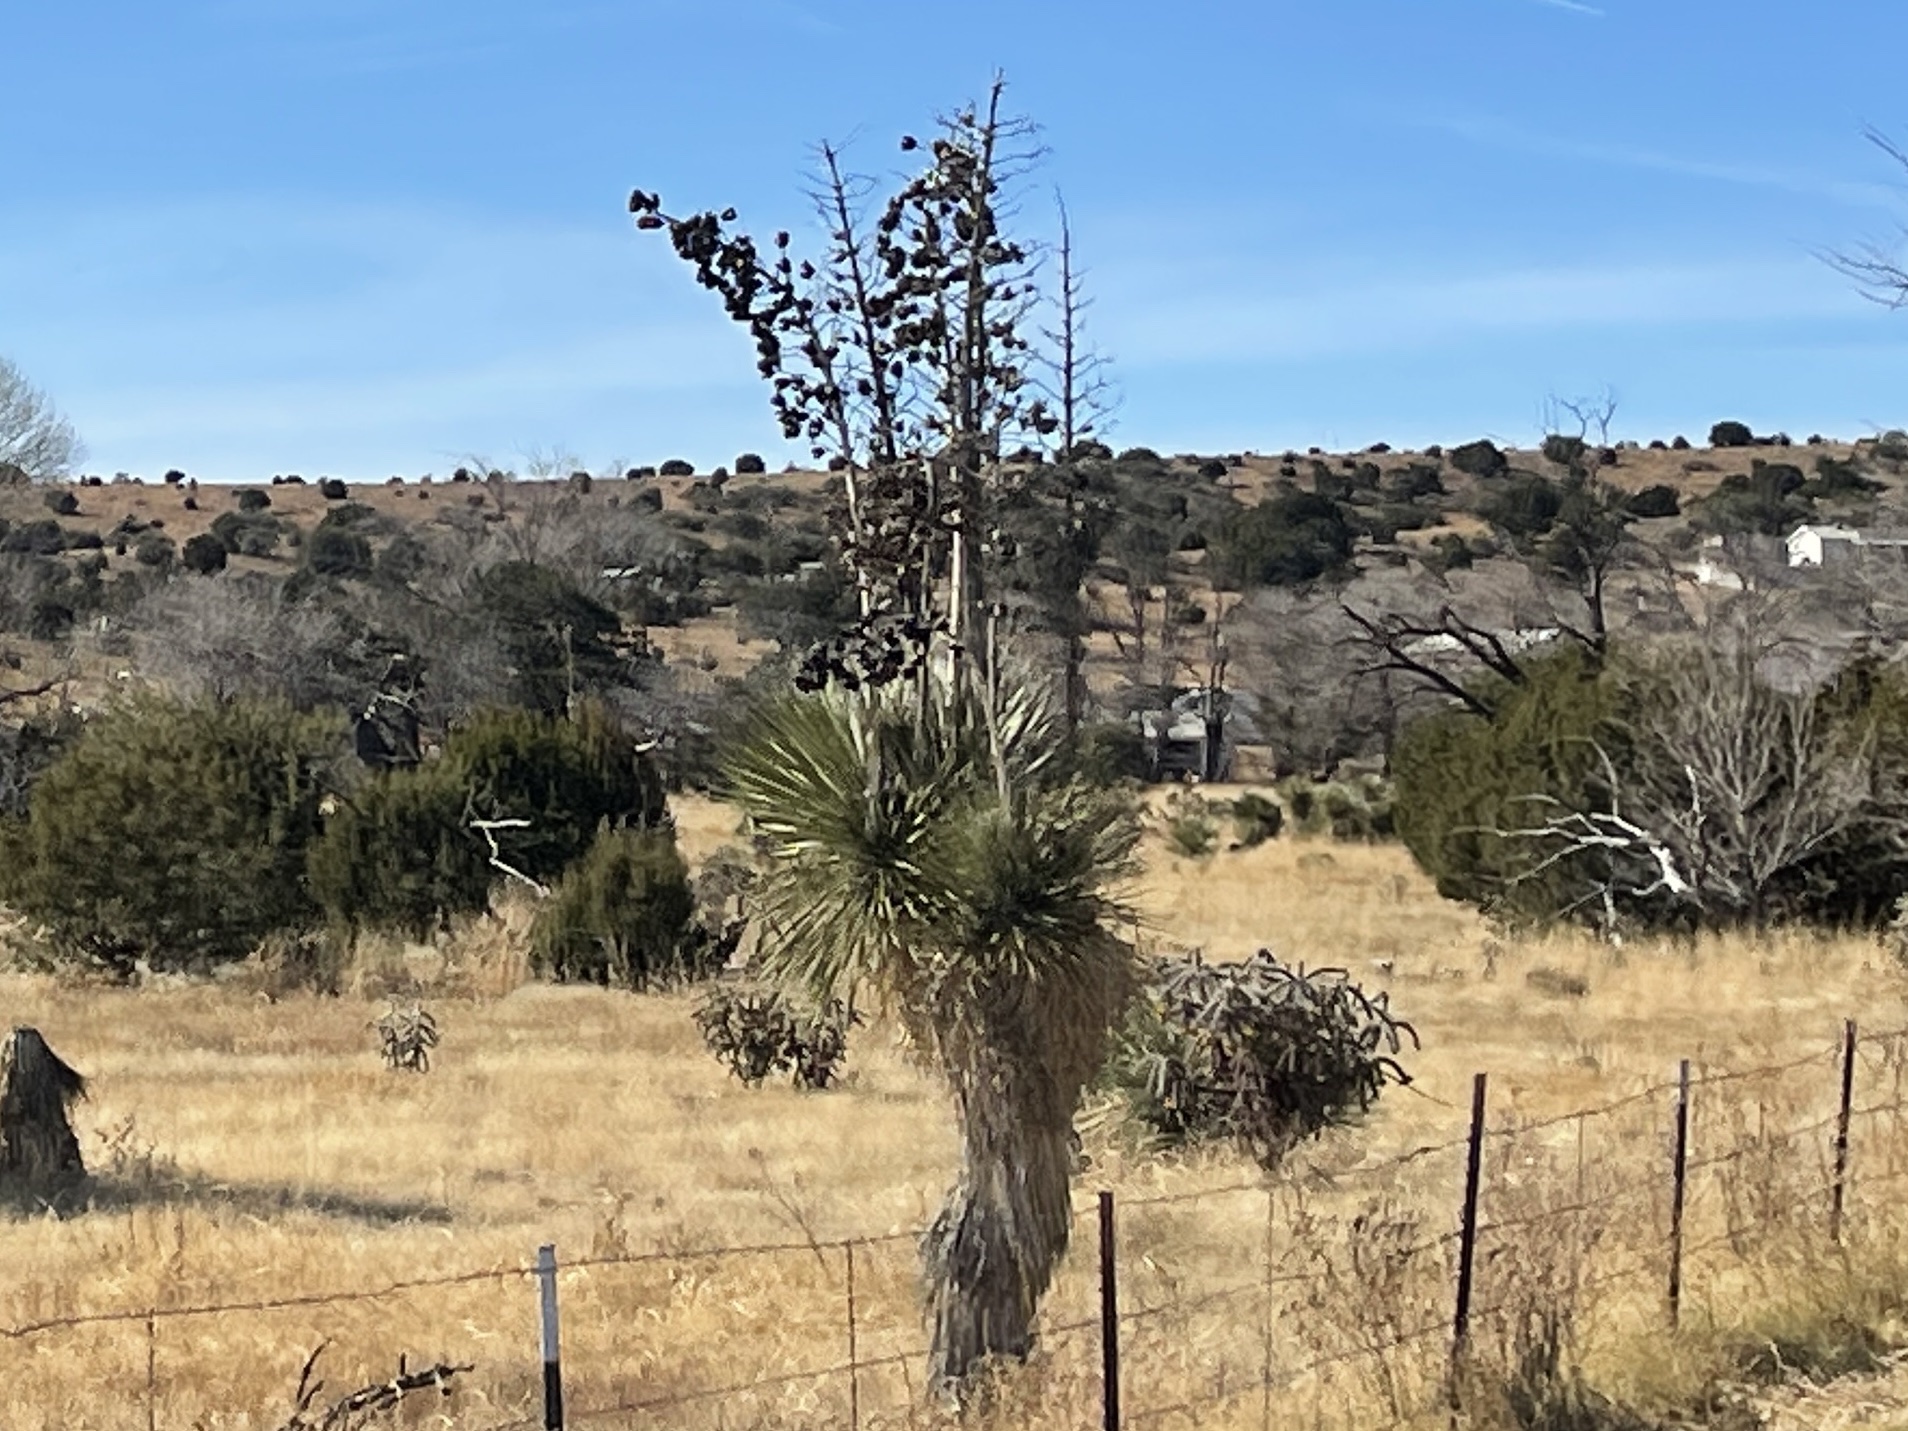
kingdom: Plantae
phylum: Tracheophyta
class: Liliopsida
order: Asparagales
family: Asparagaceae
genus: Yucca
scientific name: Yucca elata
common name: Palmella
